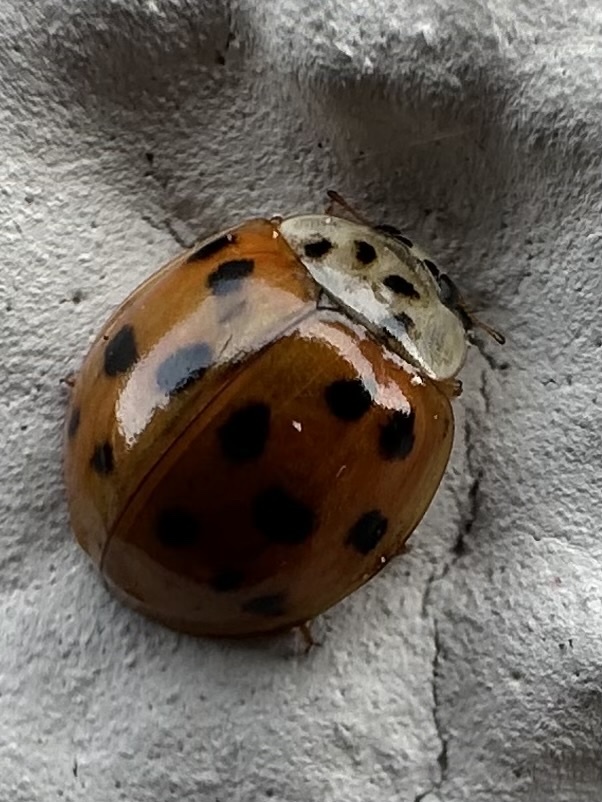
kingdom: Animalia
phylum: Arthropoda
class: Insecta
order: Coleoptera
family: Coccinellidae
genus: Harmonia
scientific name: Harmonia axyridis
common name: Harlequin ladybird
